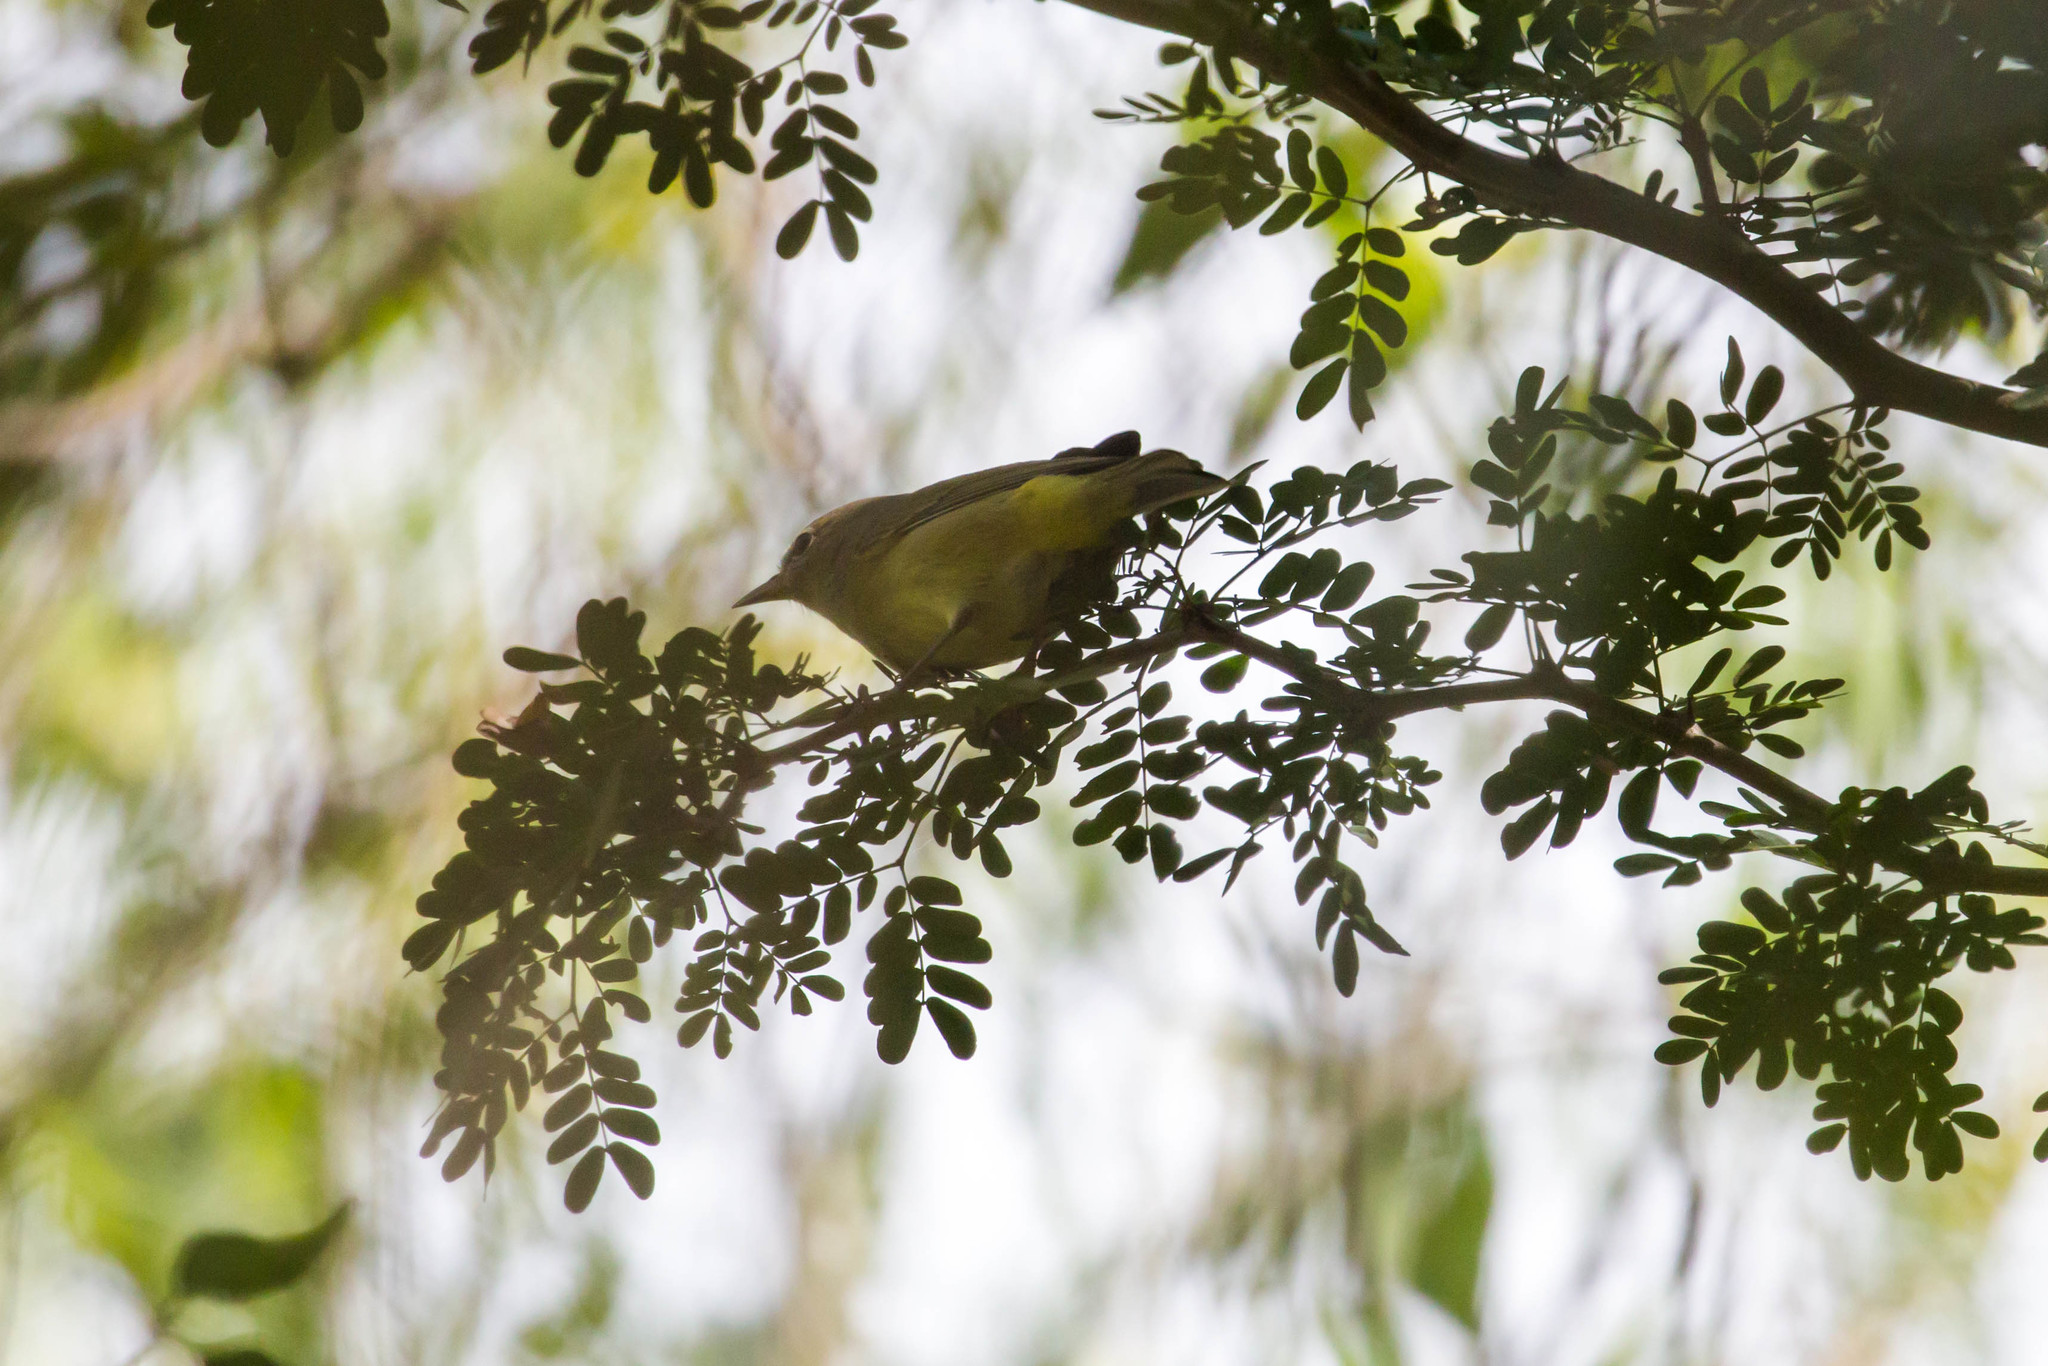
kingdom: Animalia
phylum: Chordata
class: Aves
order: Passeriformes
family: Parulidae
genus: Leiothlypis
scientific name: Leiothlypis ruficapilla
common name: Nashville warbler
